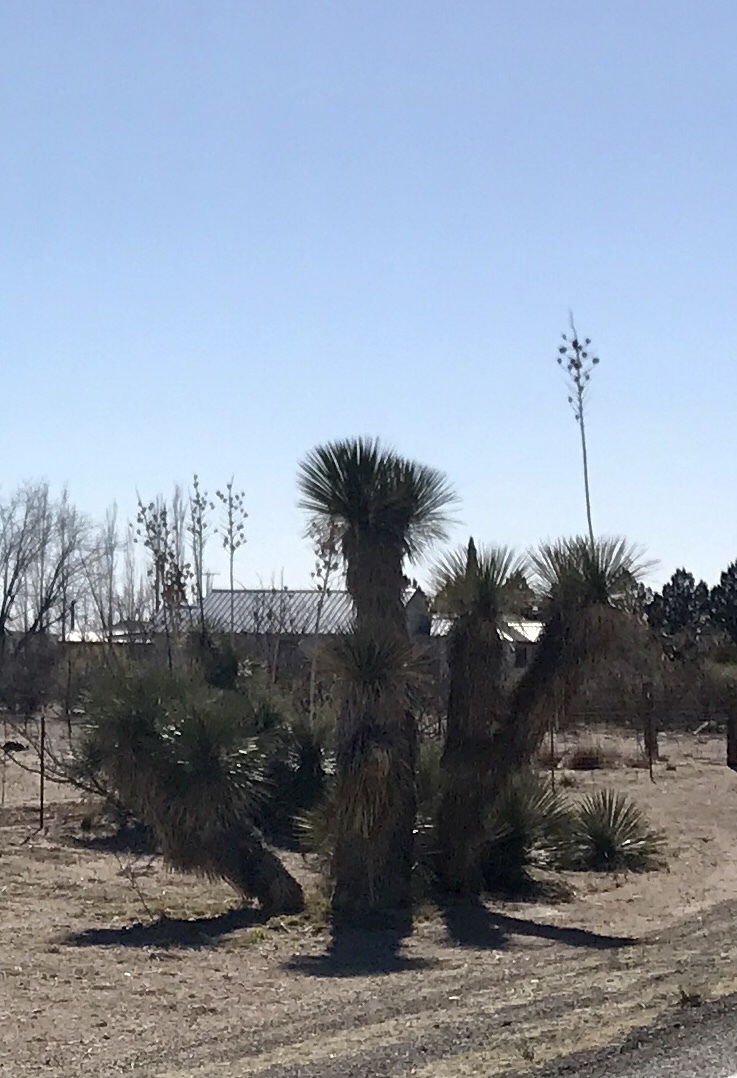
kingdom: Plantae
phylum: Tracheophyta
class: Liliopsida
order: Asparagales
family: Asparagaceae
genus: Yucca
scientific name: Yucca elata
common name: Palmella
